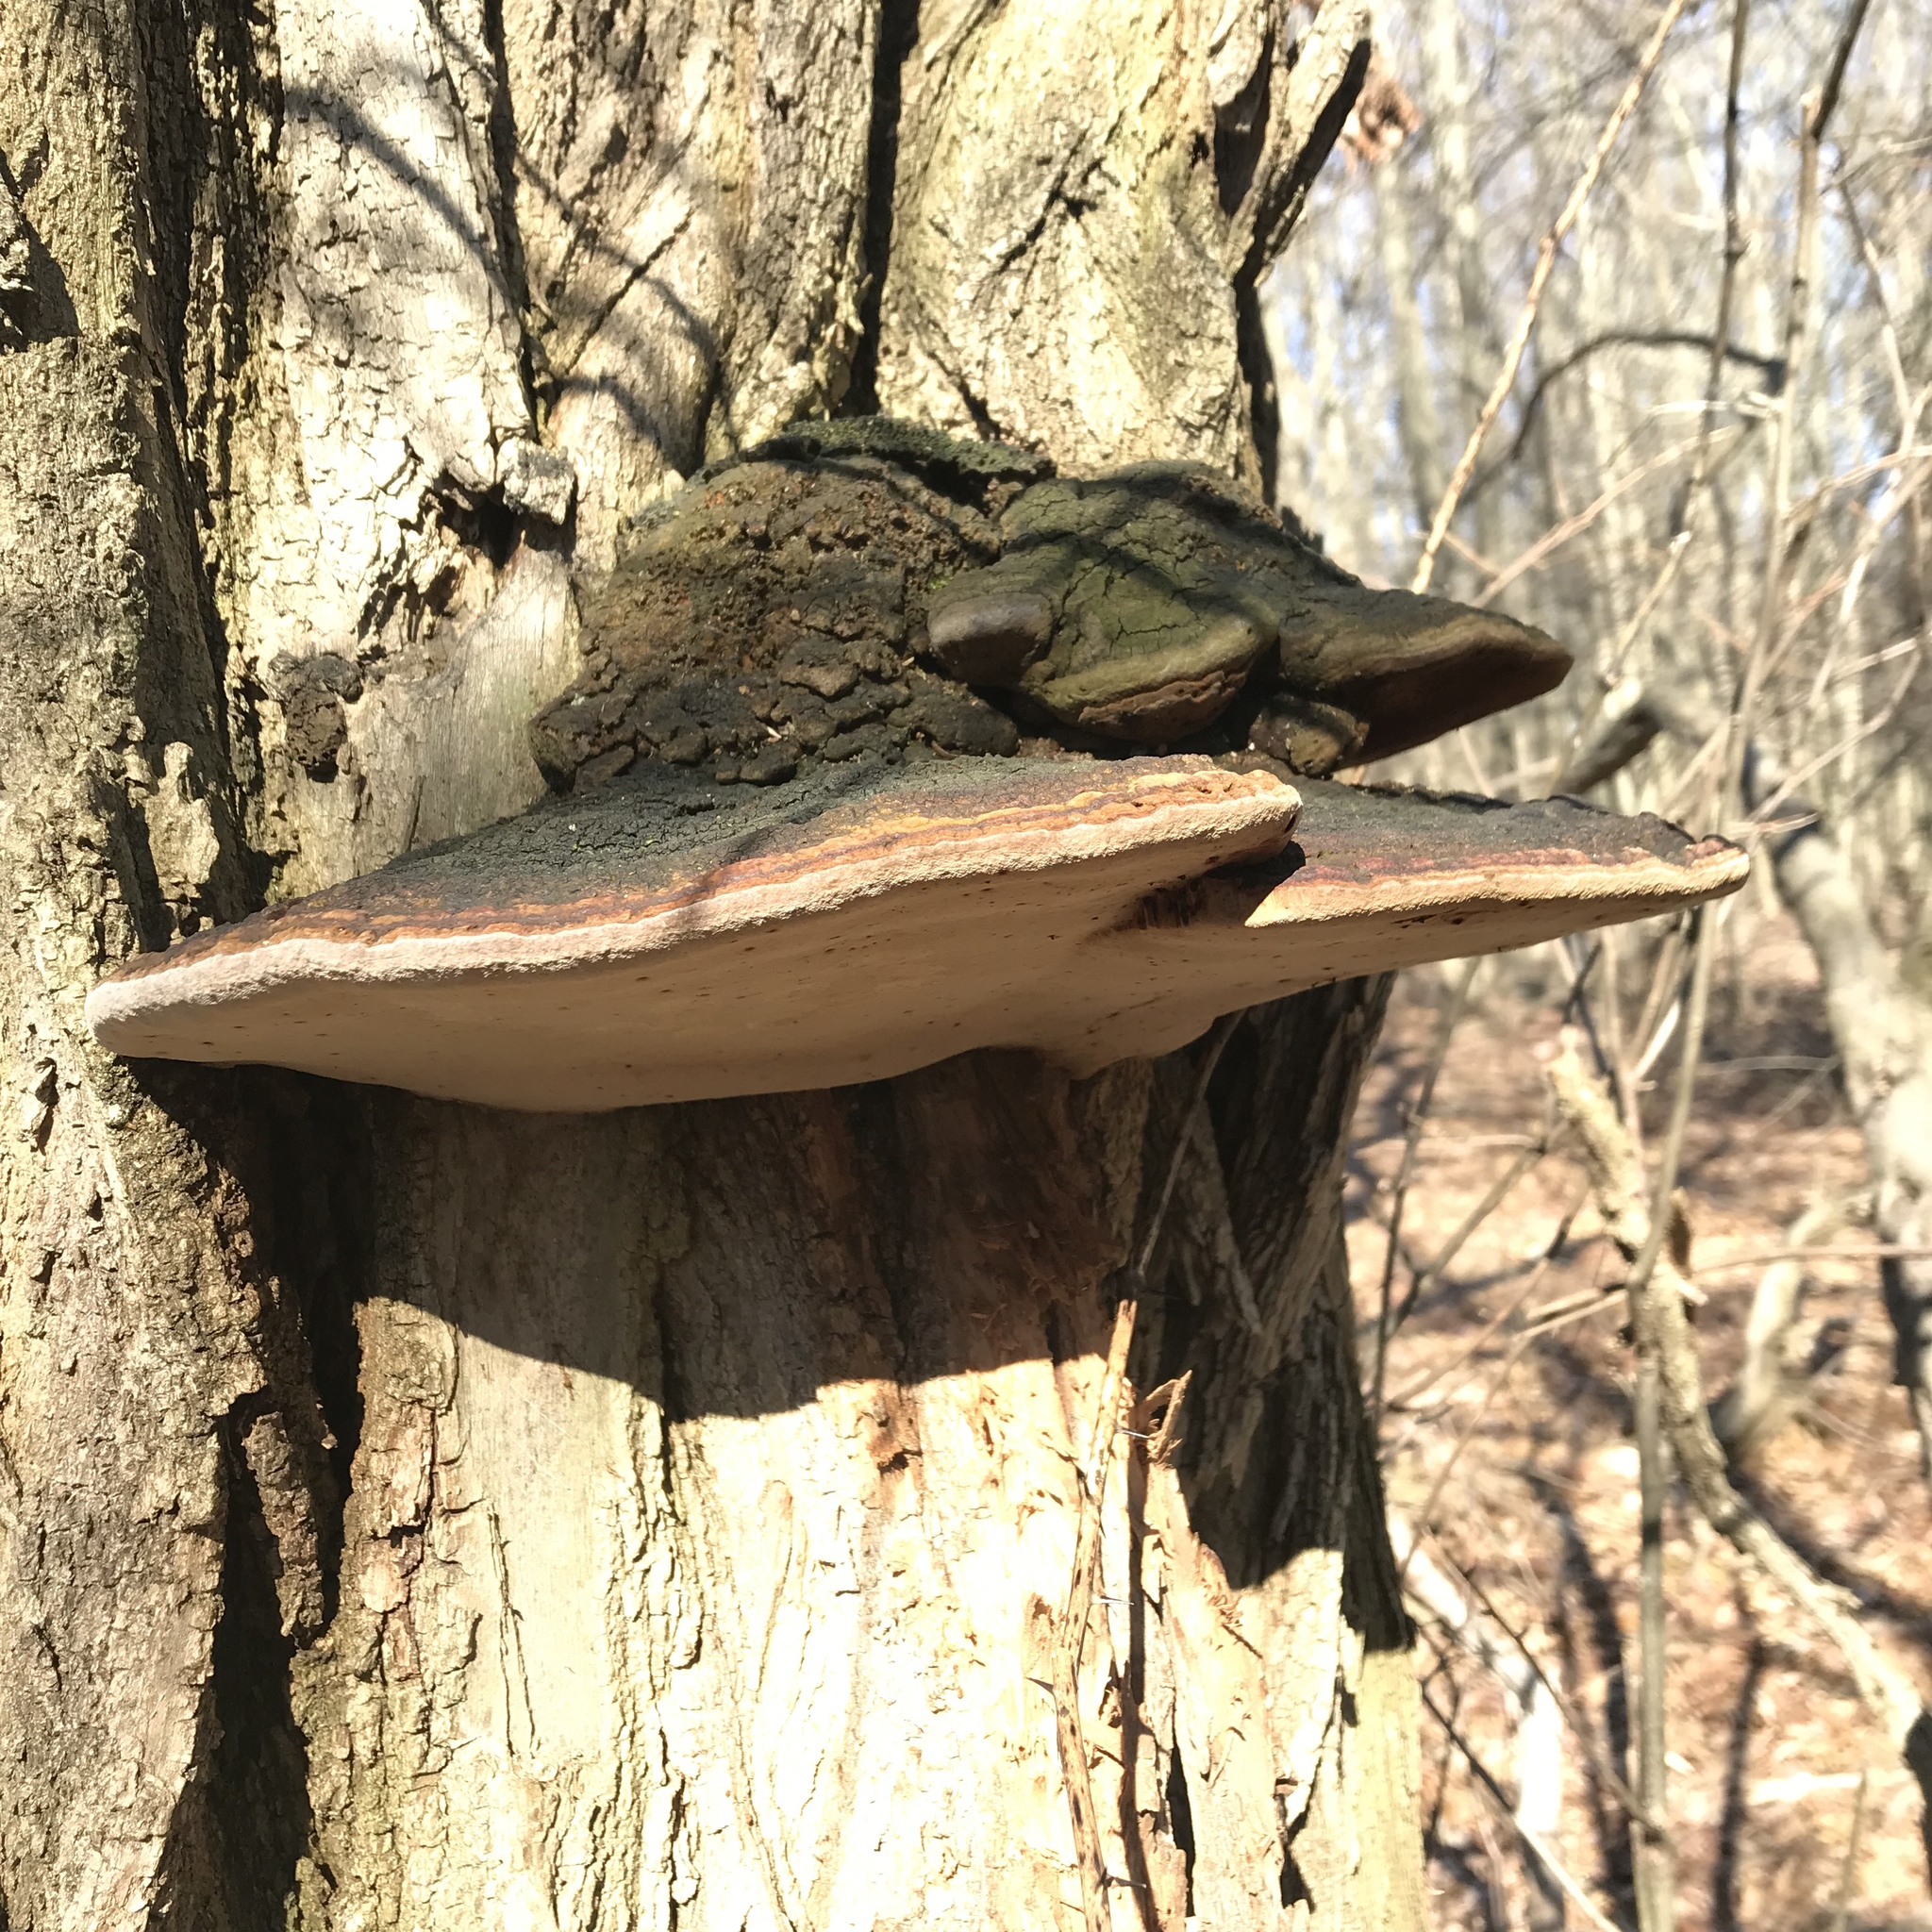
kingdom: Fungi
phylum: Basidiomycota
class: Agaricomycetes
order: Hymenochaetales
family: Hymenochaetaceae
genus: Phellinus
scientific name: Phellinus robiniae
